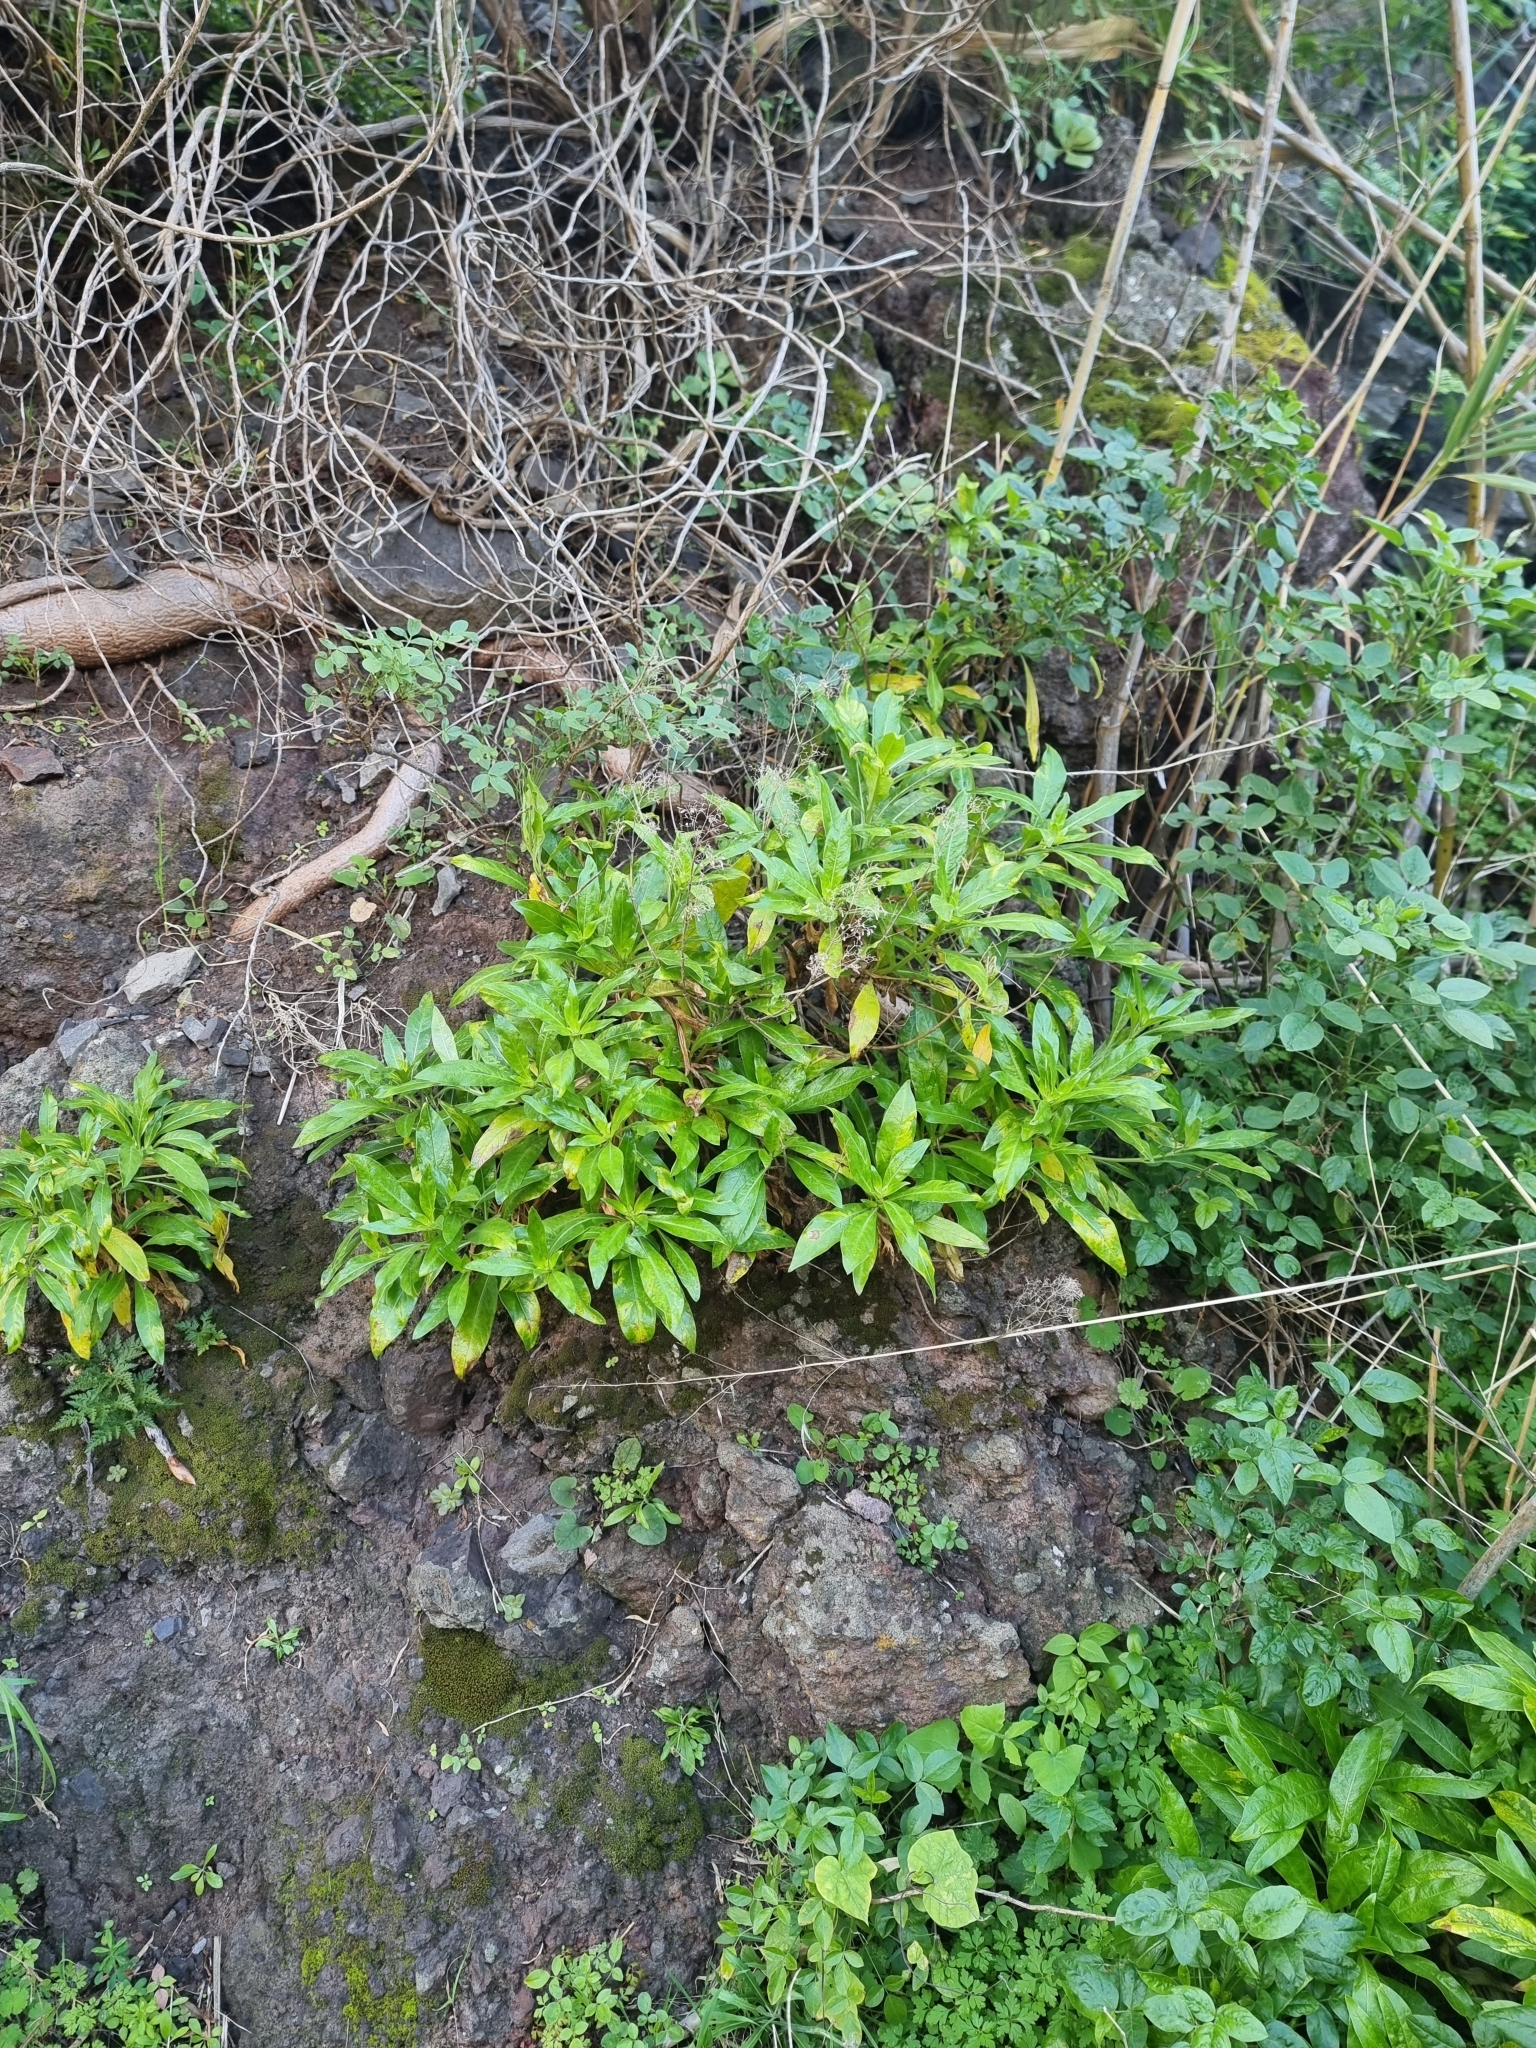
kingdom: Plantae
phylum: Tracheophyta
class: Magnoliopsida
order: Gentianales
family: Rubiaceae
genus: Phyllis
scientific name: Phyllis nobla
